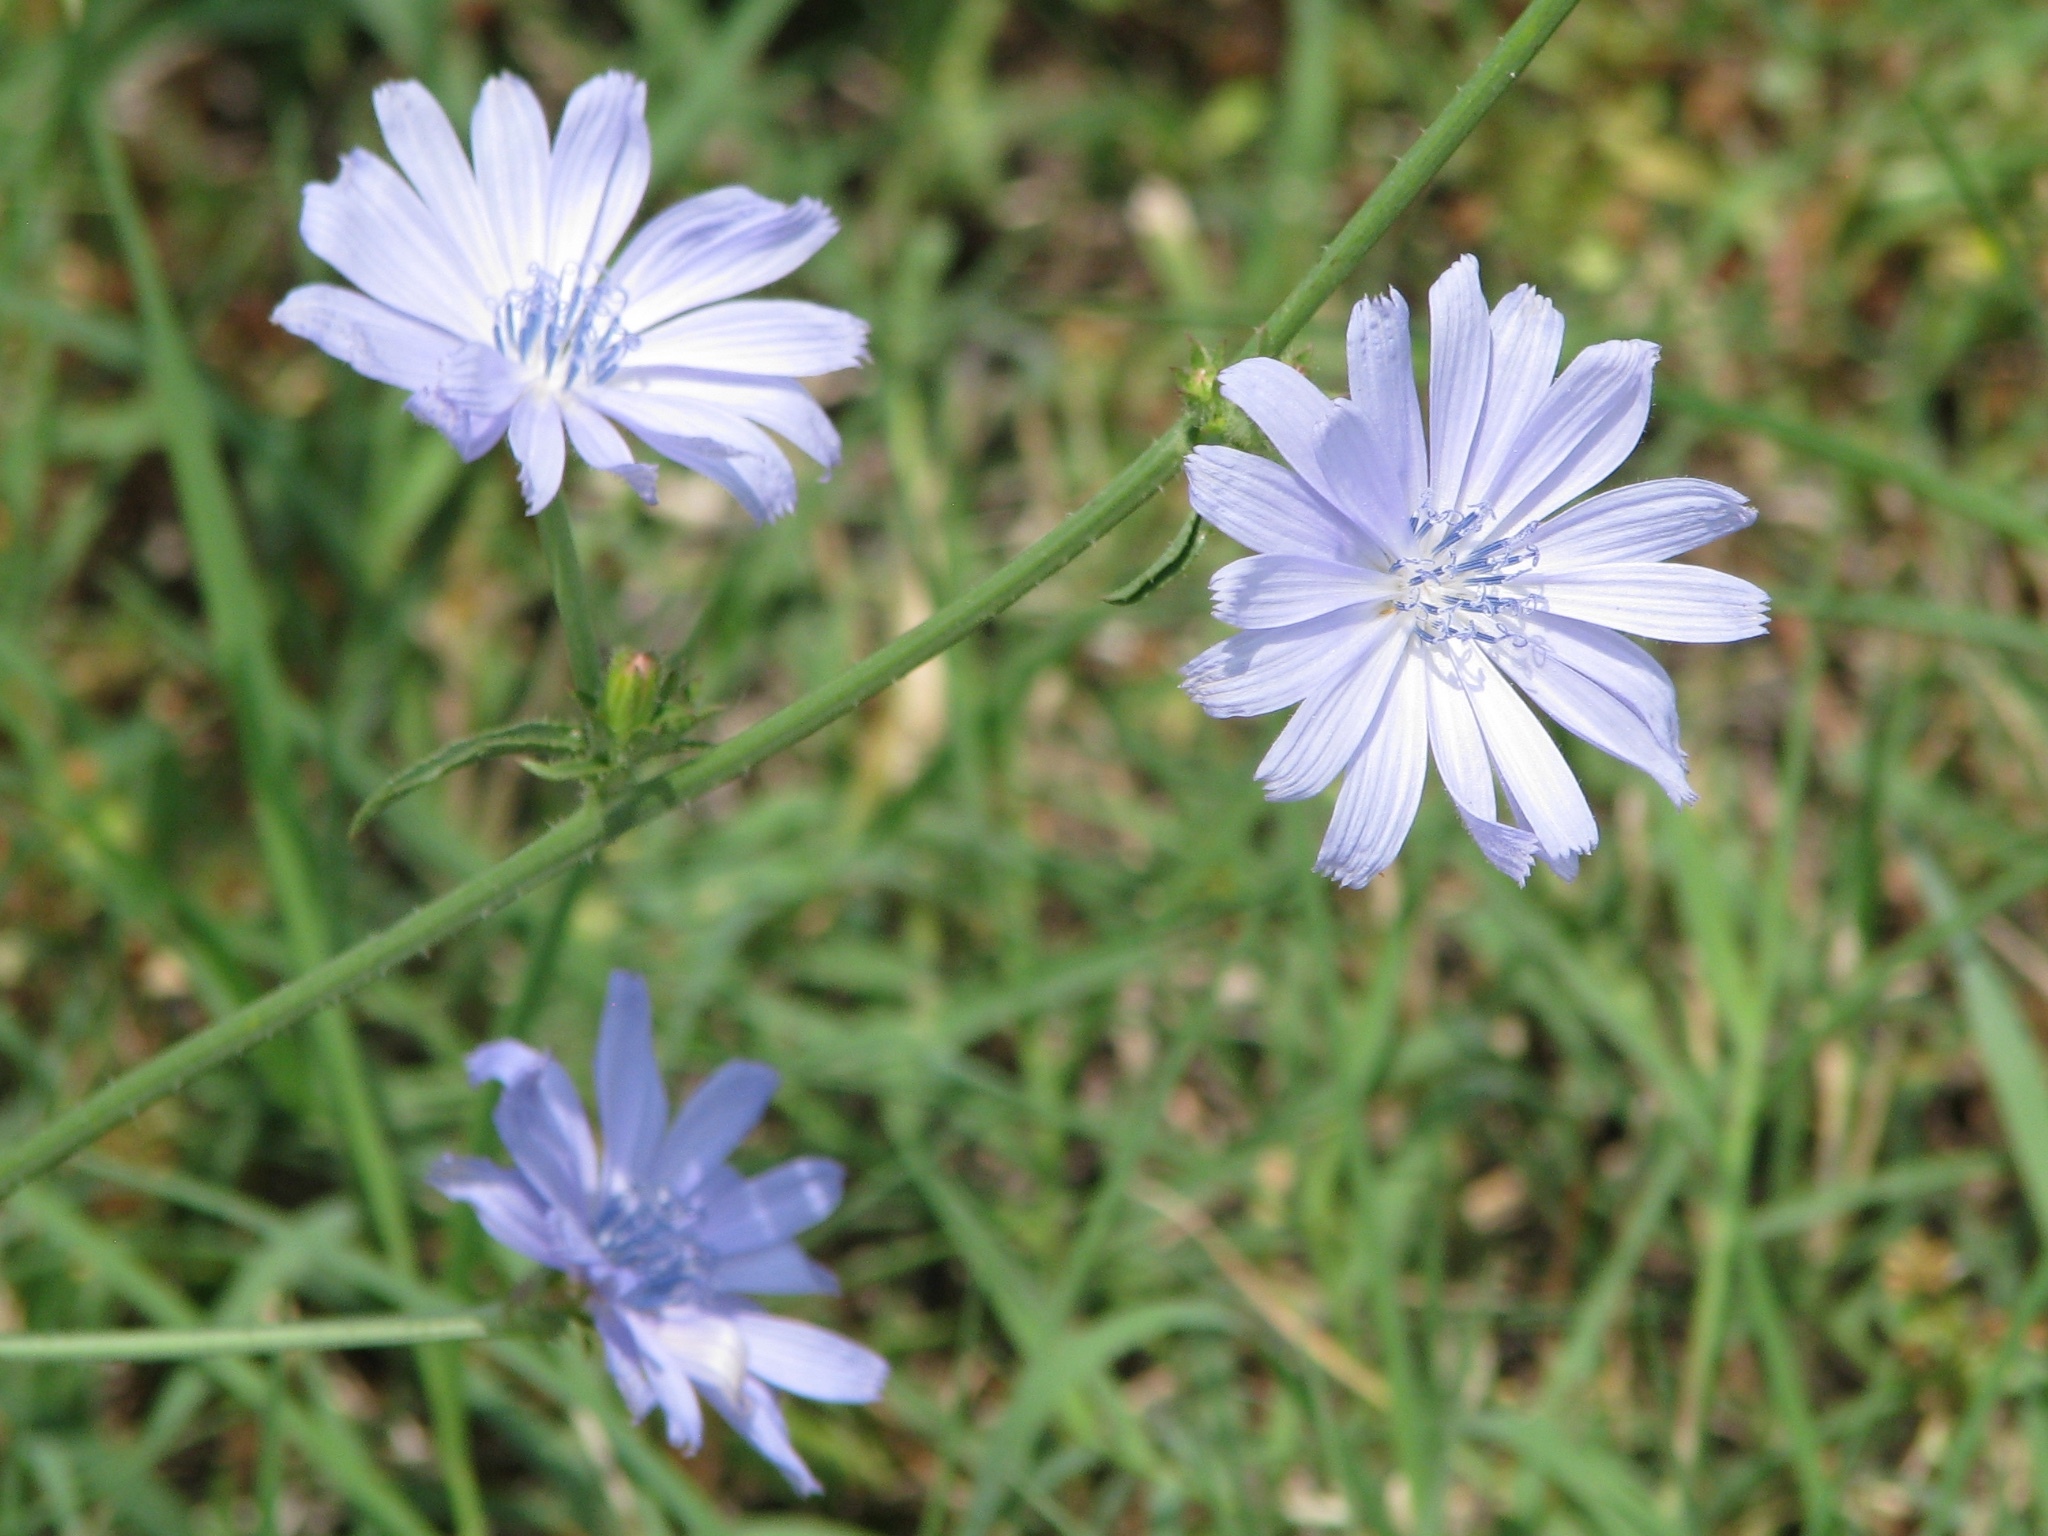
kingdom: Plantae
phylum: Tracheophyta
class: Magnoliopsida
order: Asterales
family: Asteraceae
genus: Cichorium
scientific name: Cichorium intybus
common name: Chicory
